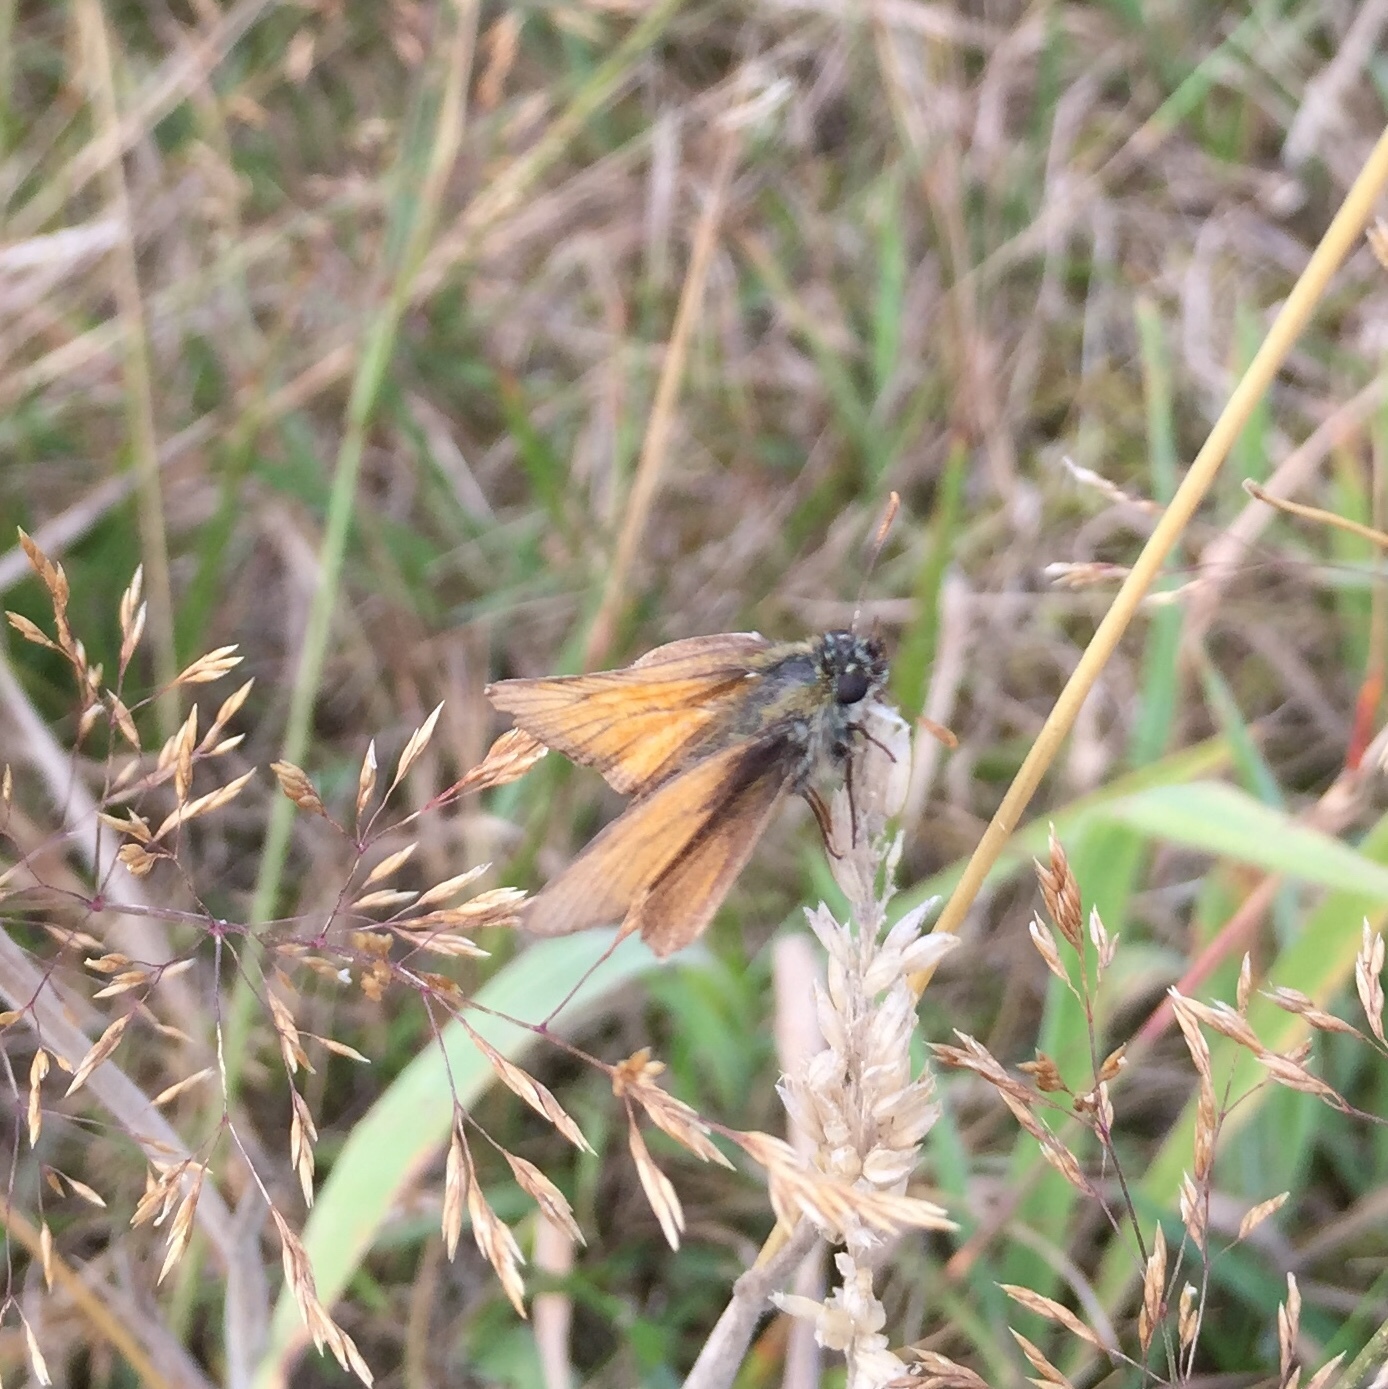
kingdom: Animalia
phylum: Arthropoda
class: Insecta
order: Lepidoptera
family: Hesperiidae
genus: Thymelicus
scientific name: Thymelicus sylvestris
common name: Small skipper
